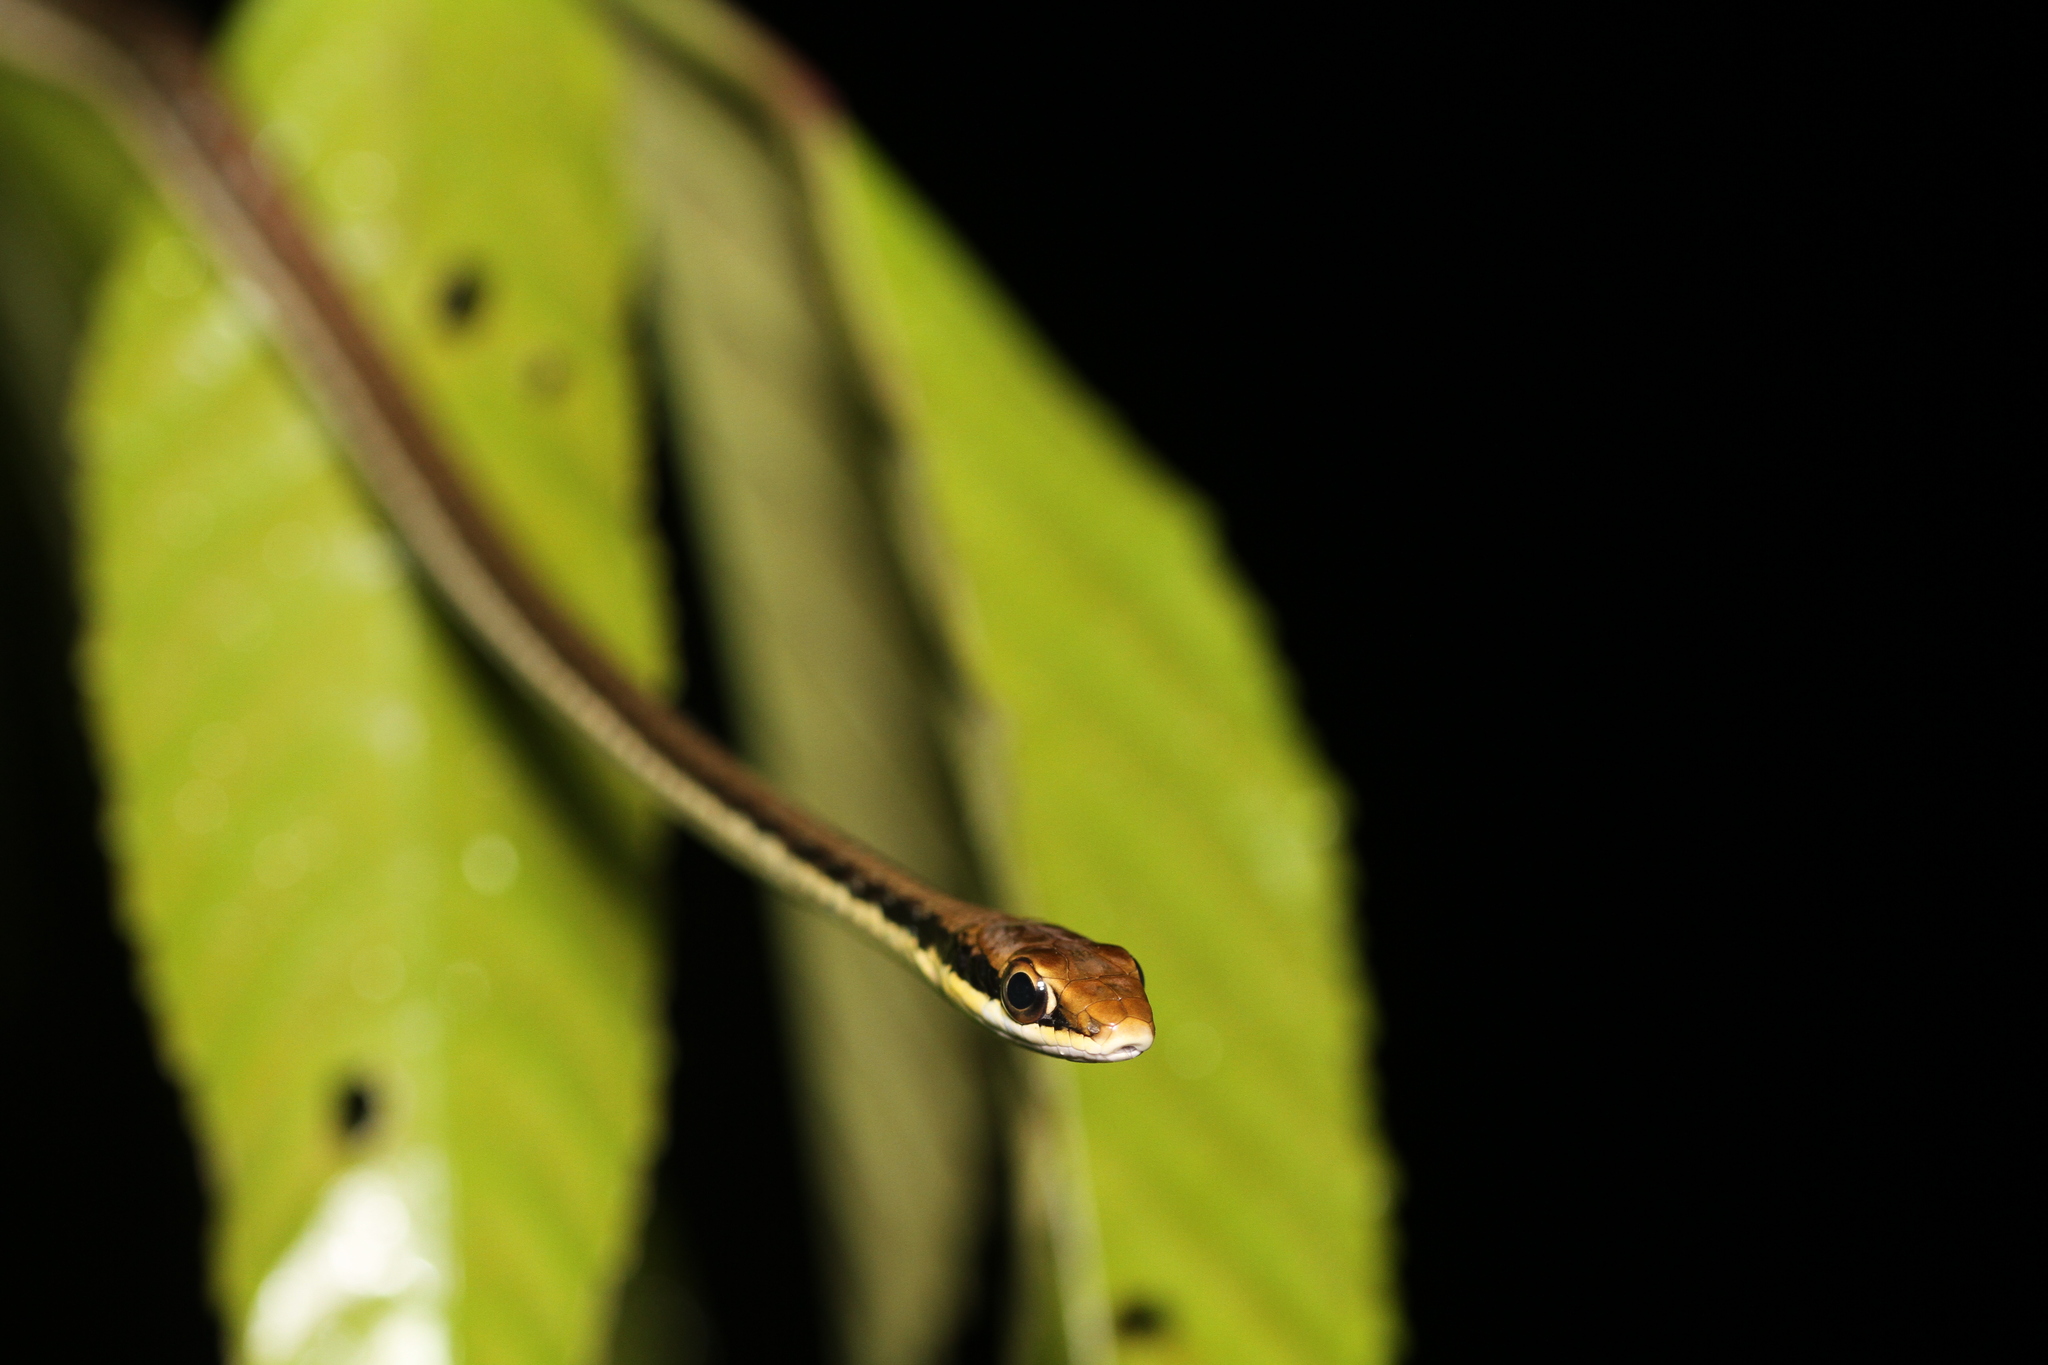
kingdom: Animalia
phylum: Chordata
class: Squamata
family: Colubridae
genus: Dendrelaphis
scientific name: Dendrelaphis pictus
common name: Indonesian bronze-back
